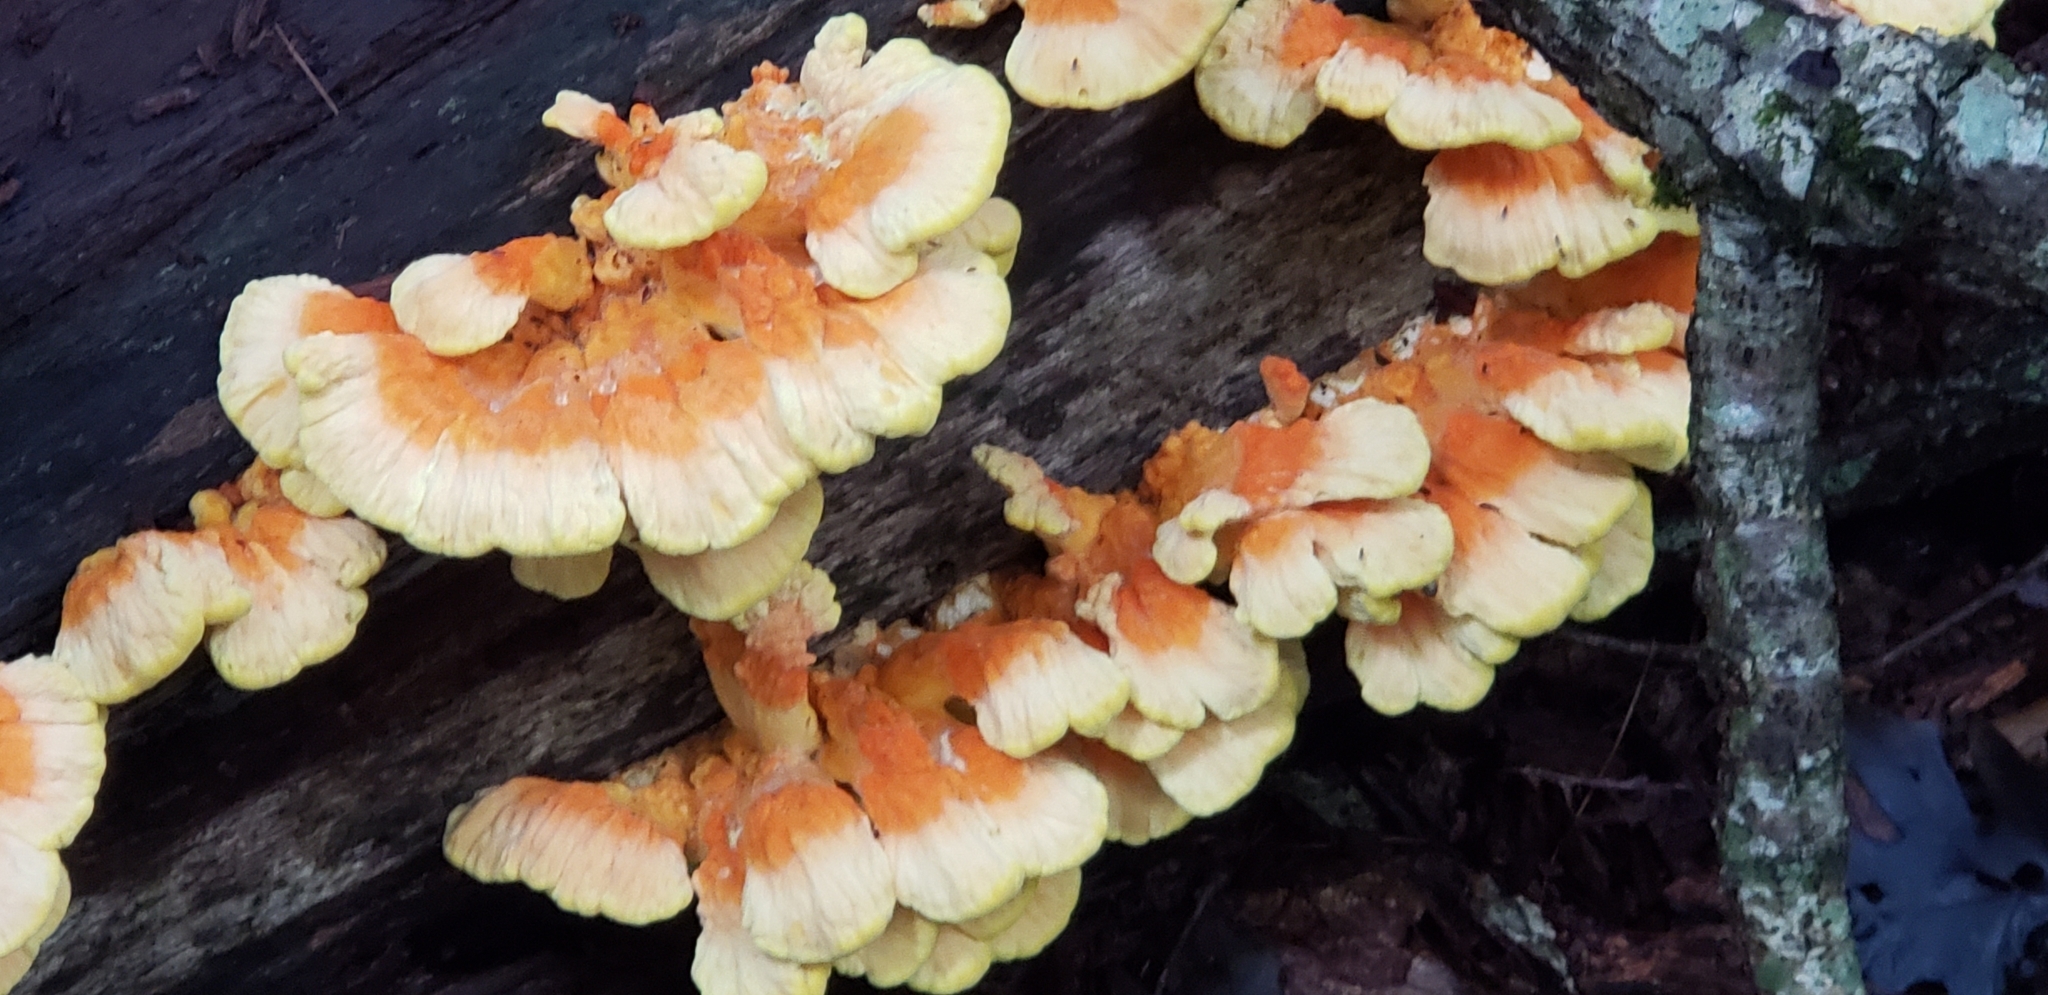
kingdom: Fungi
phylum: Basidiomycota
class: Agaricomycetes
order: Polyporales
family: Laetiporaceae
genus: Laetiporus
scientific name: Laetiporus sulphureus
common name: Chicken of the woods
